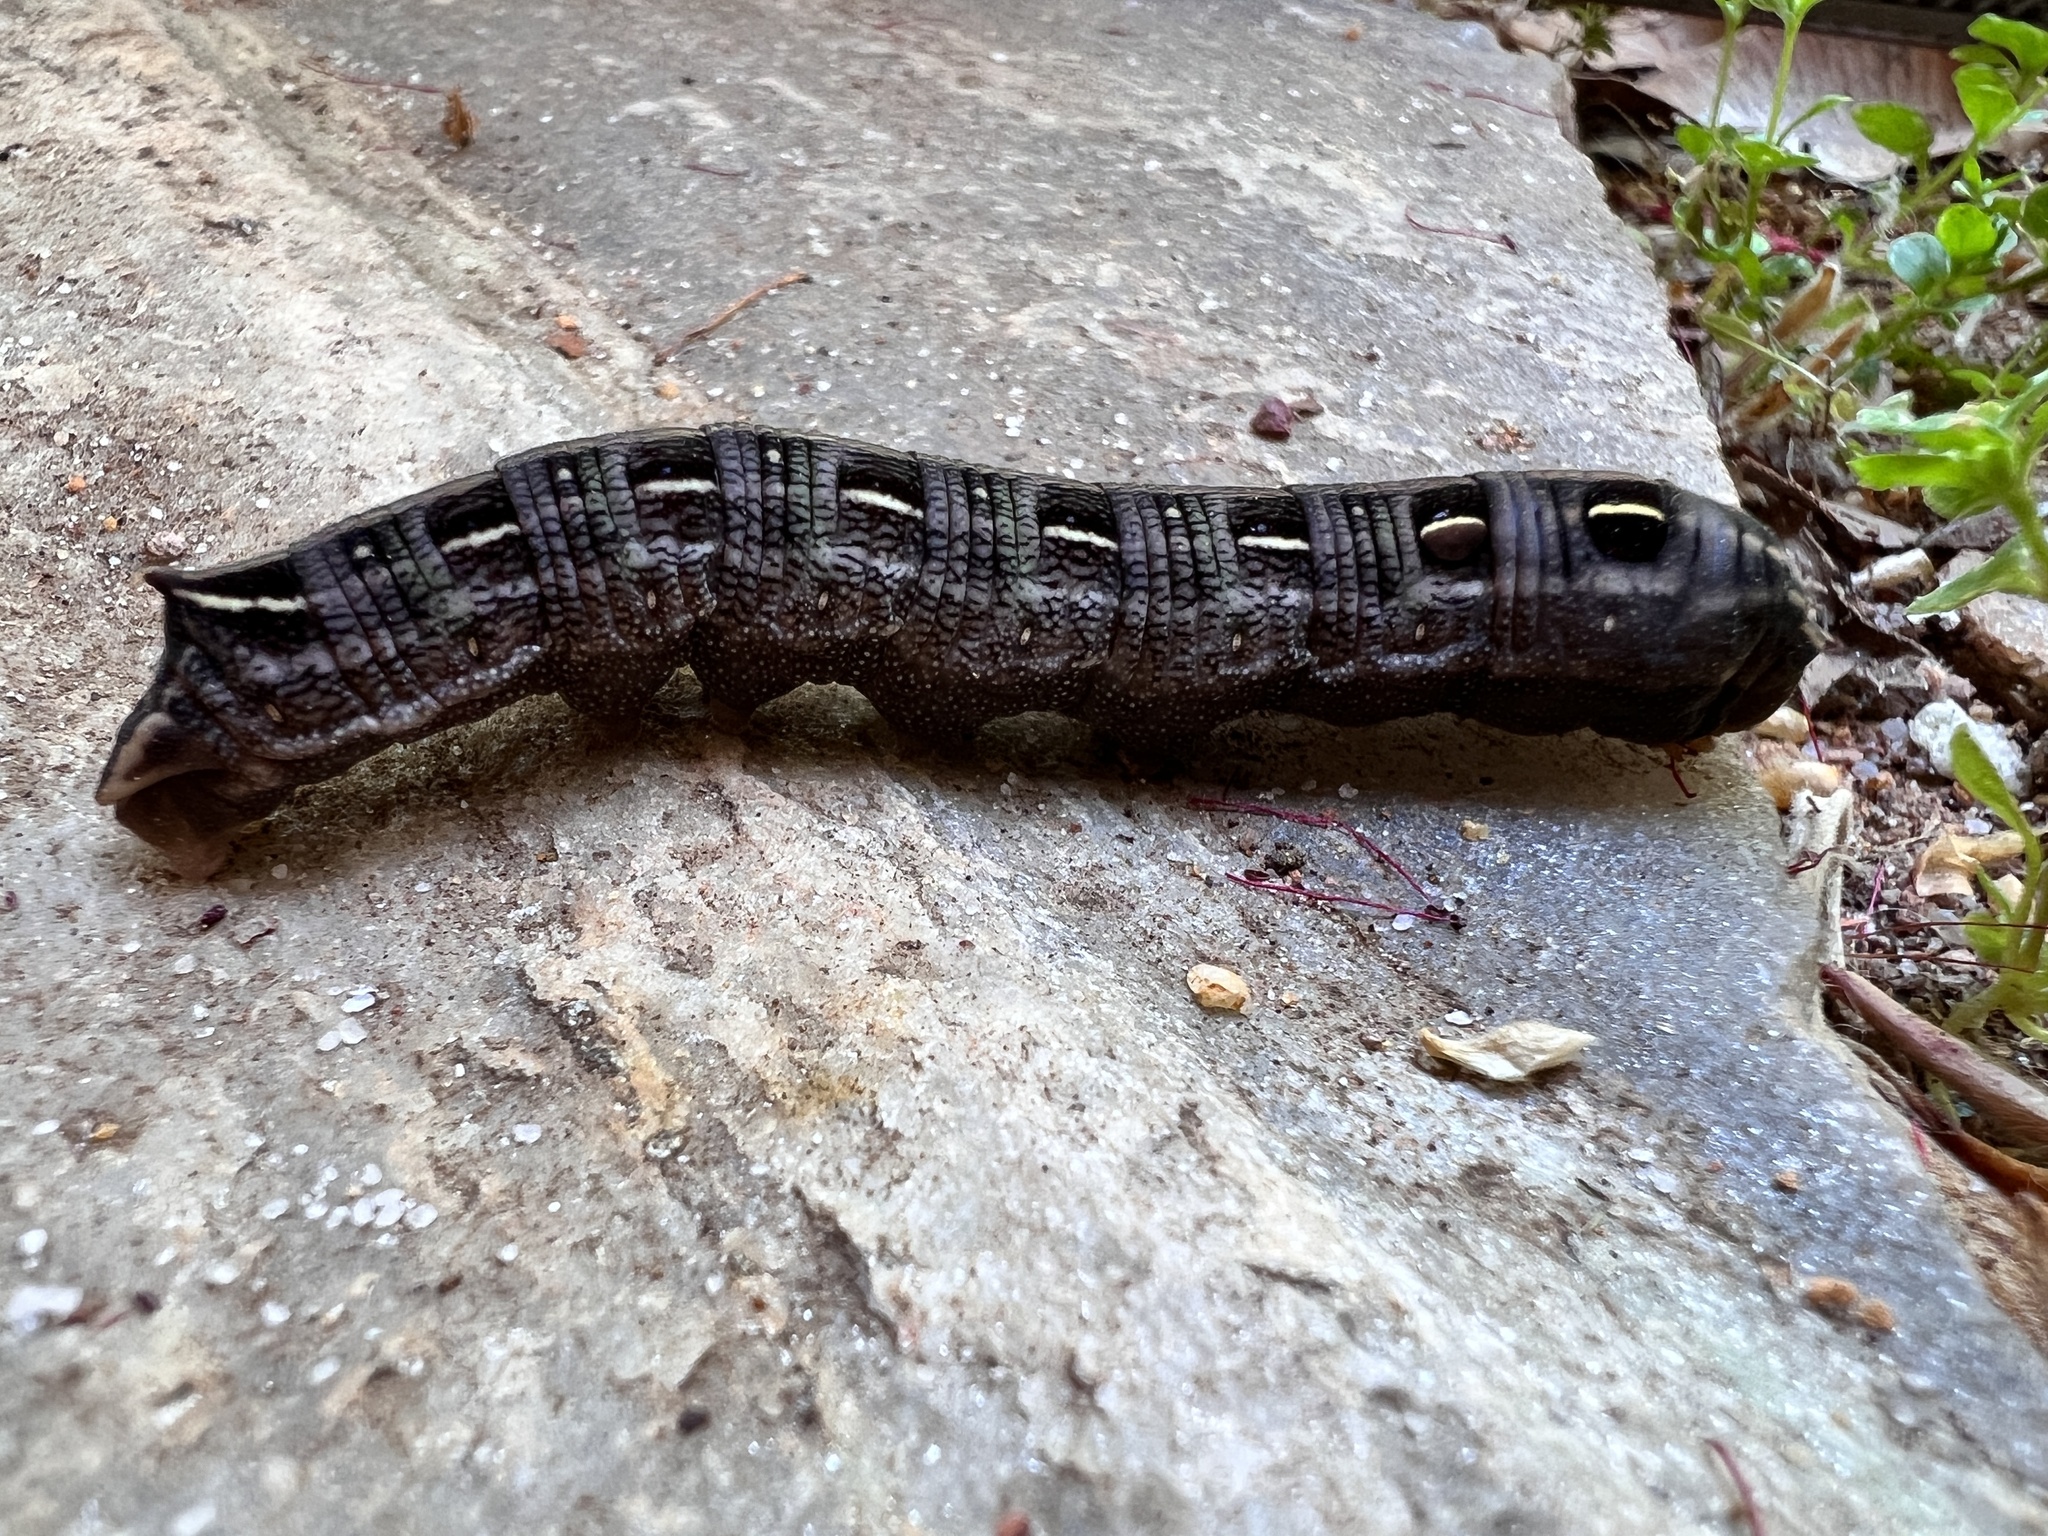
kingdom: Animalia
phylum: Arthropoda
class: Insecta
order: Lepidoptera
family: Sphingidae
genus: Hippotion
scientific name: Hippotion scrofa
